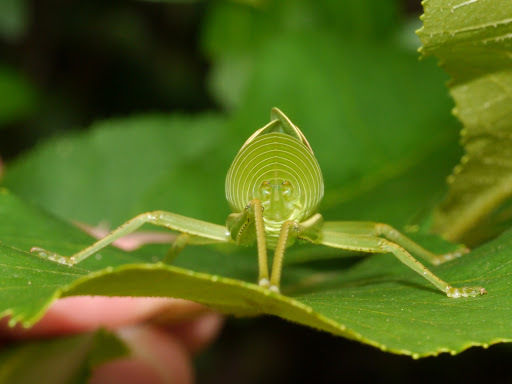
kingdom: Animalia
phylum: Arthropoda
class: Insecta
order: Orthoptera
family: Tettigoniidae
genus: Paracyrtophyllus
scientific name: Paracyrtophyllus robustus
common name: Central texas leaf katydid
